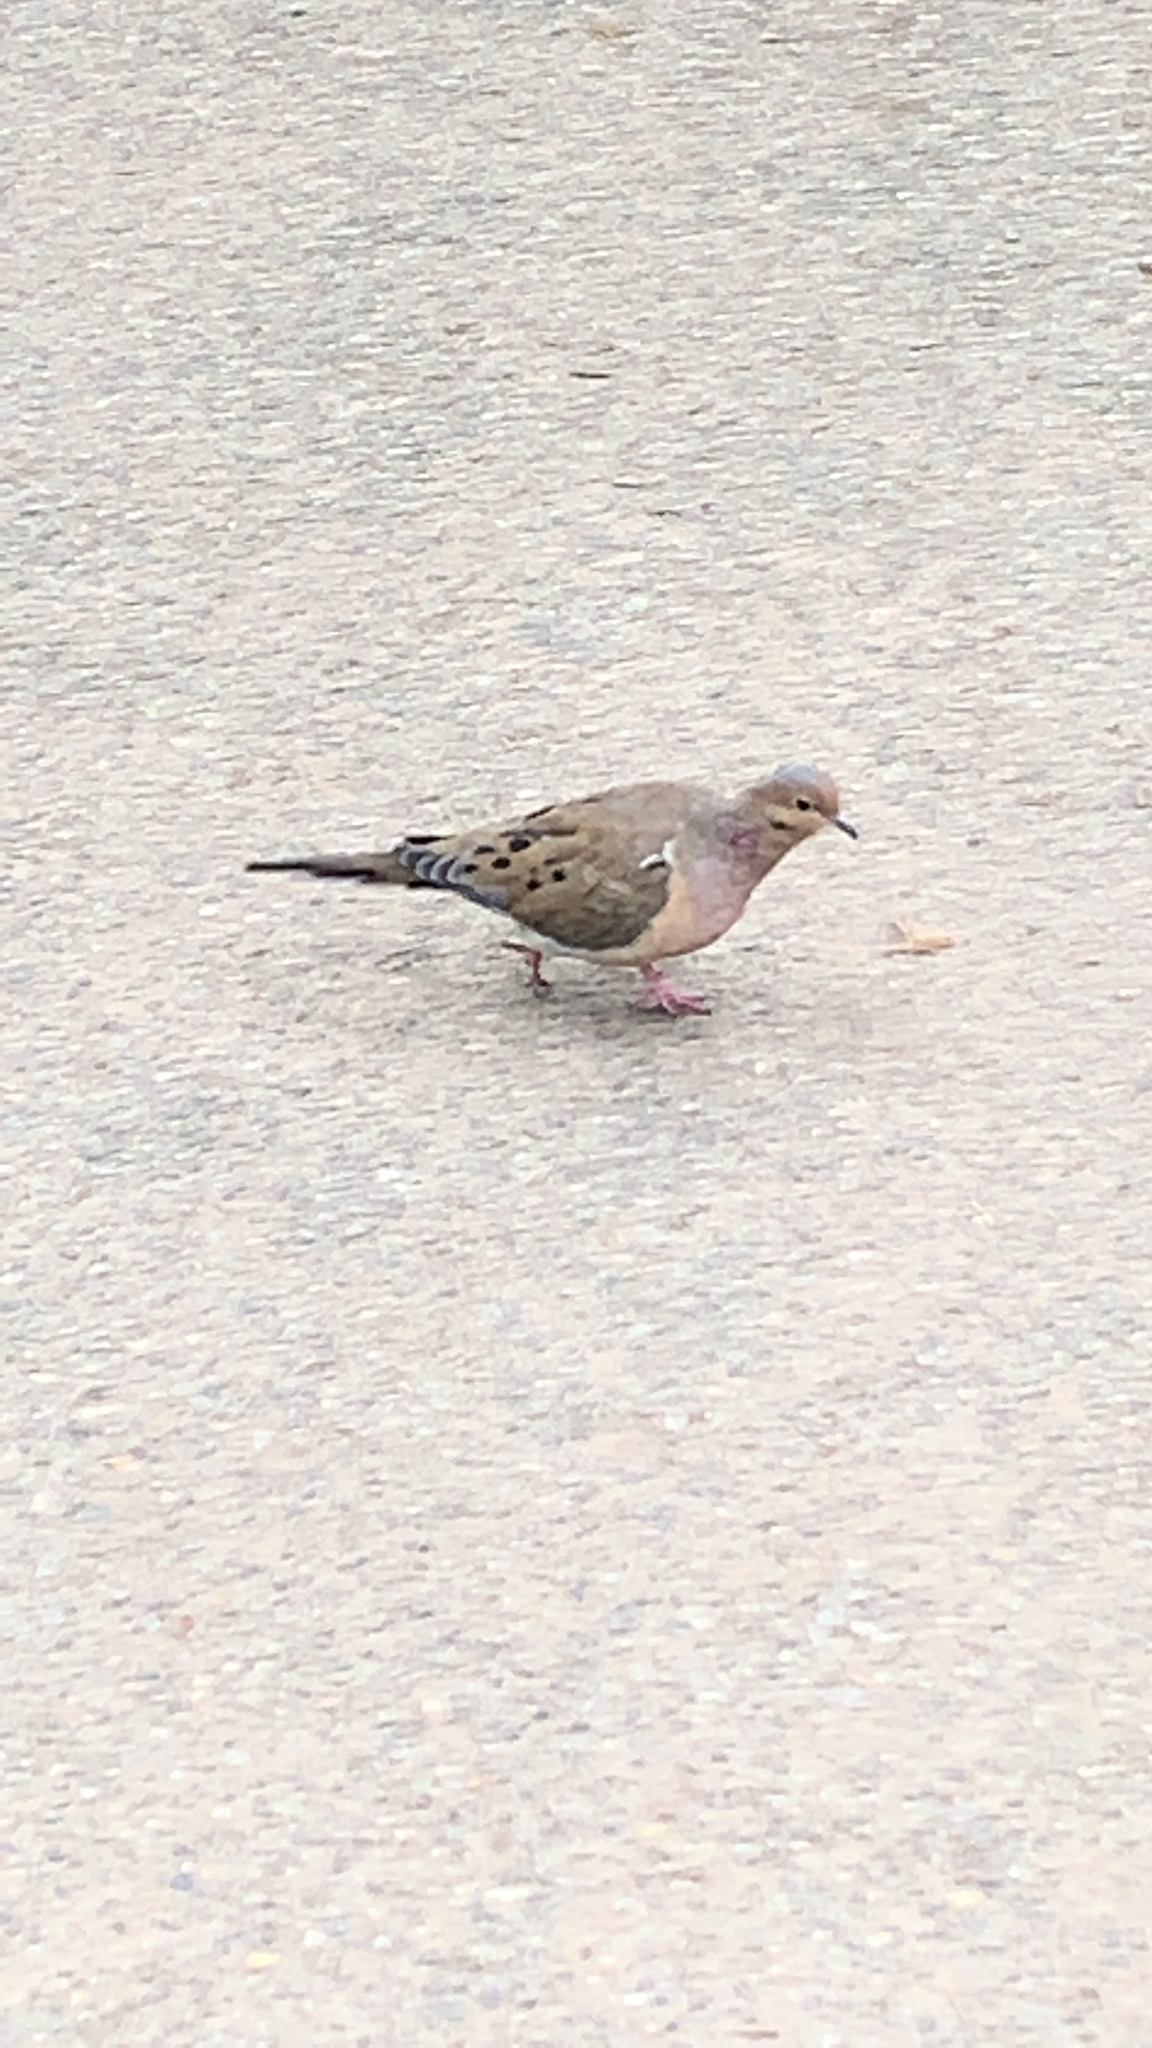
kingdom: Animalia
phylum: Chordata
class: Aves
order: Columbiformes
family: Columbidae
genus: Zenaida
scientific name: Zenaida macroura
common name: Mourning dove
